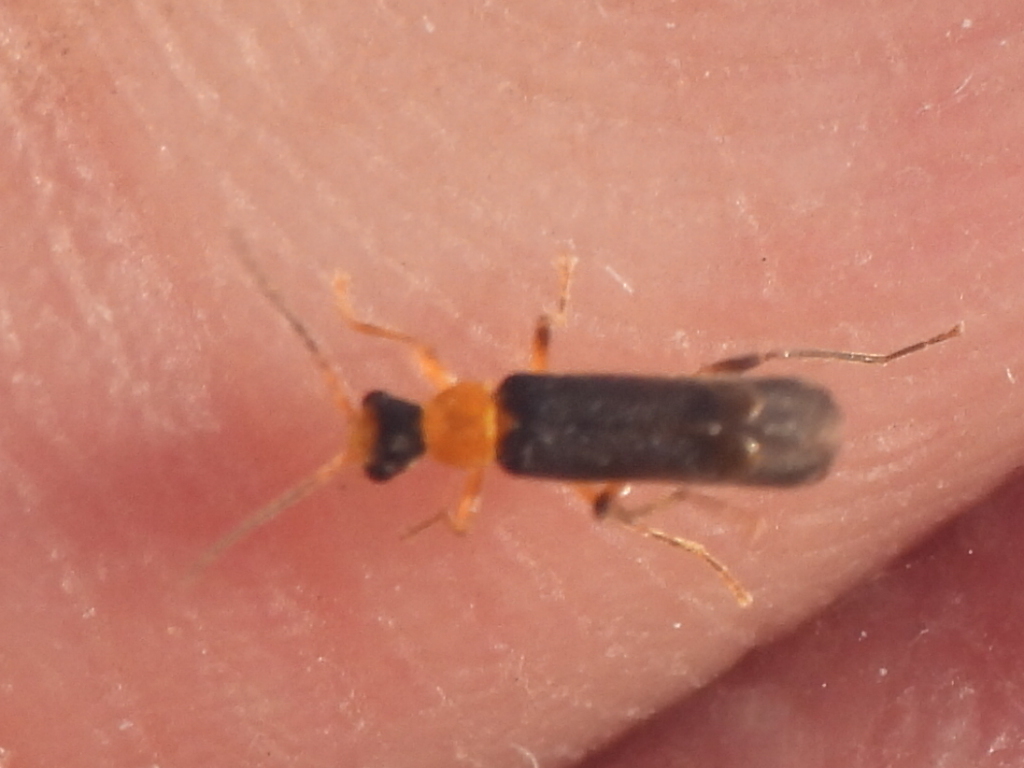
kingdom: Animalia
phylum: Arthropoda
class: Insecta
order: Coleoptera
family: Cantharidae
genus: Malthinus
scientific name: Malthinus occipitalis
